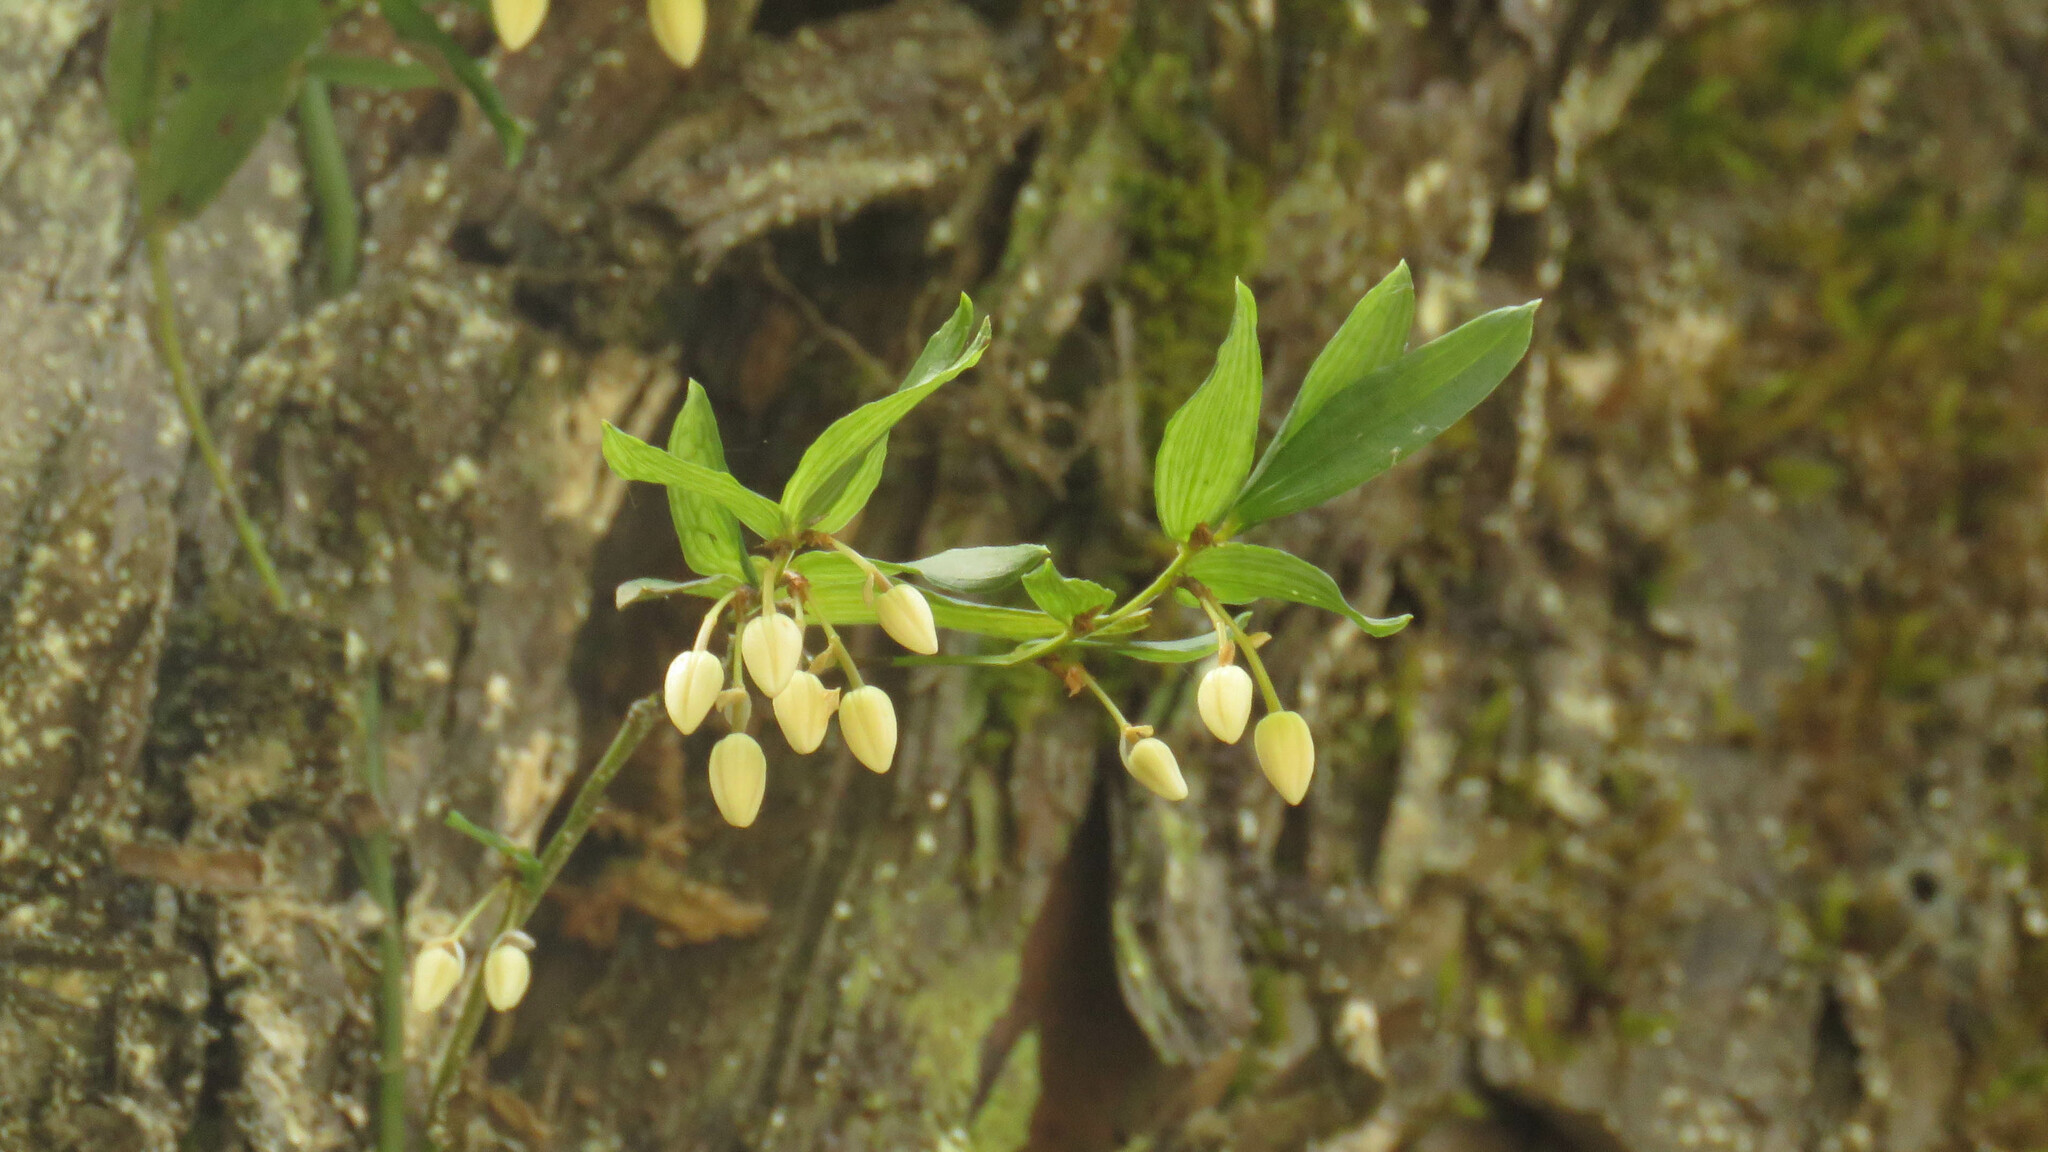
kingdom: Plantae
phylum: Tracheophyta
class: Liliopsida
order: Liliales
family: Alstroemeriaceae
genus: Luzuriaga
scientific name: Luzuriaga radicans
